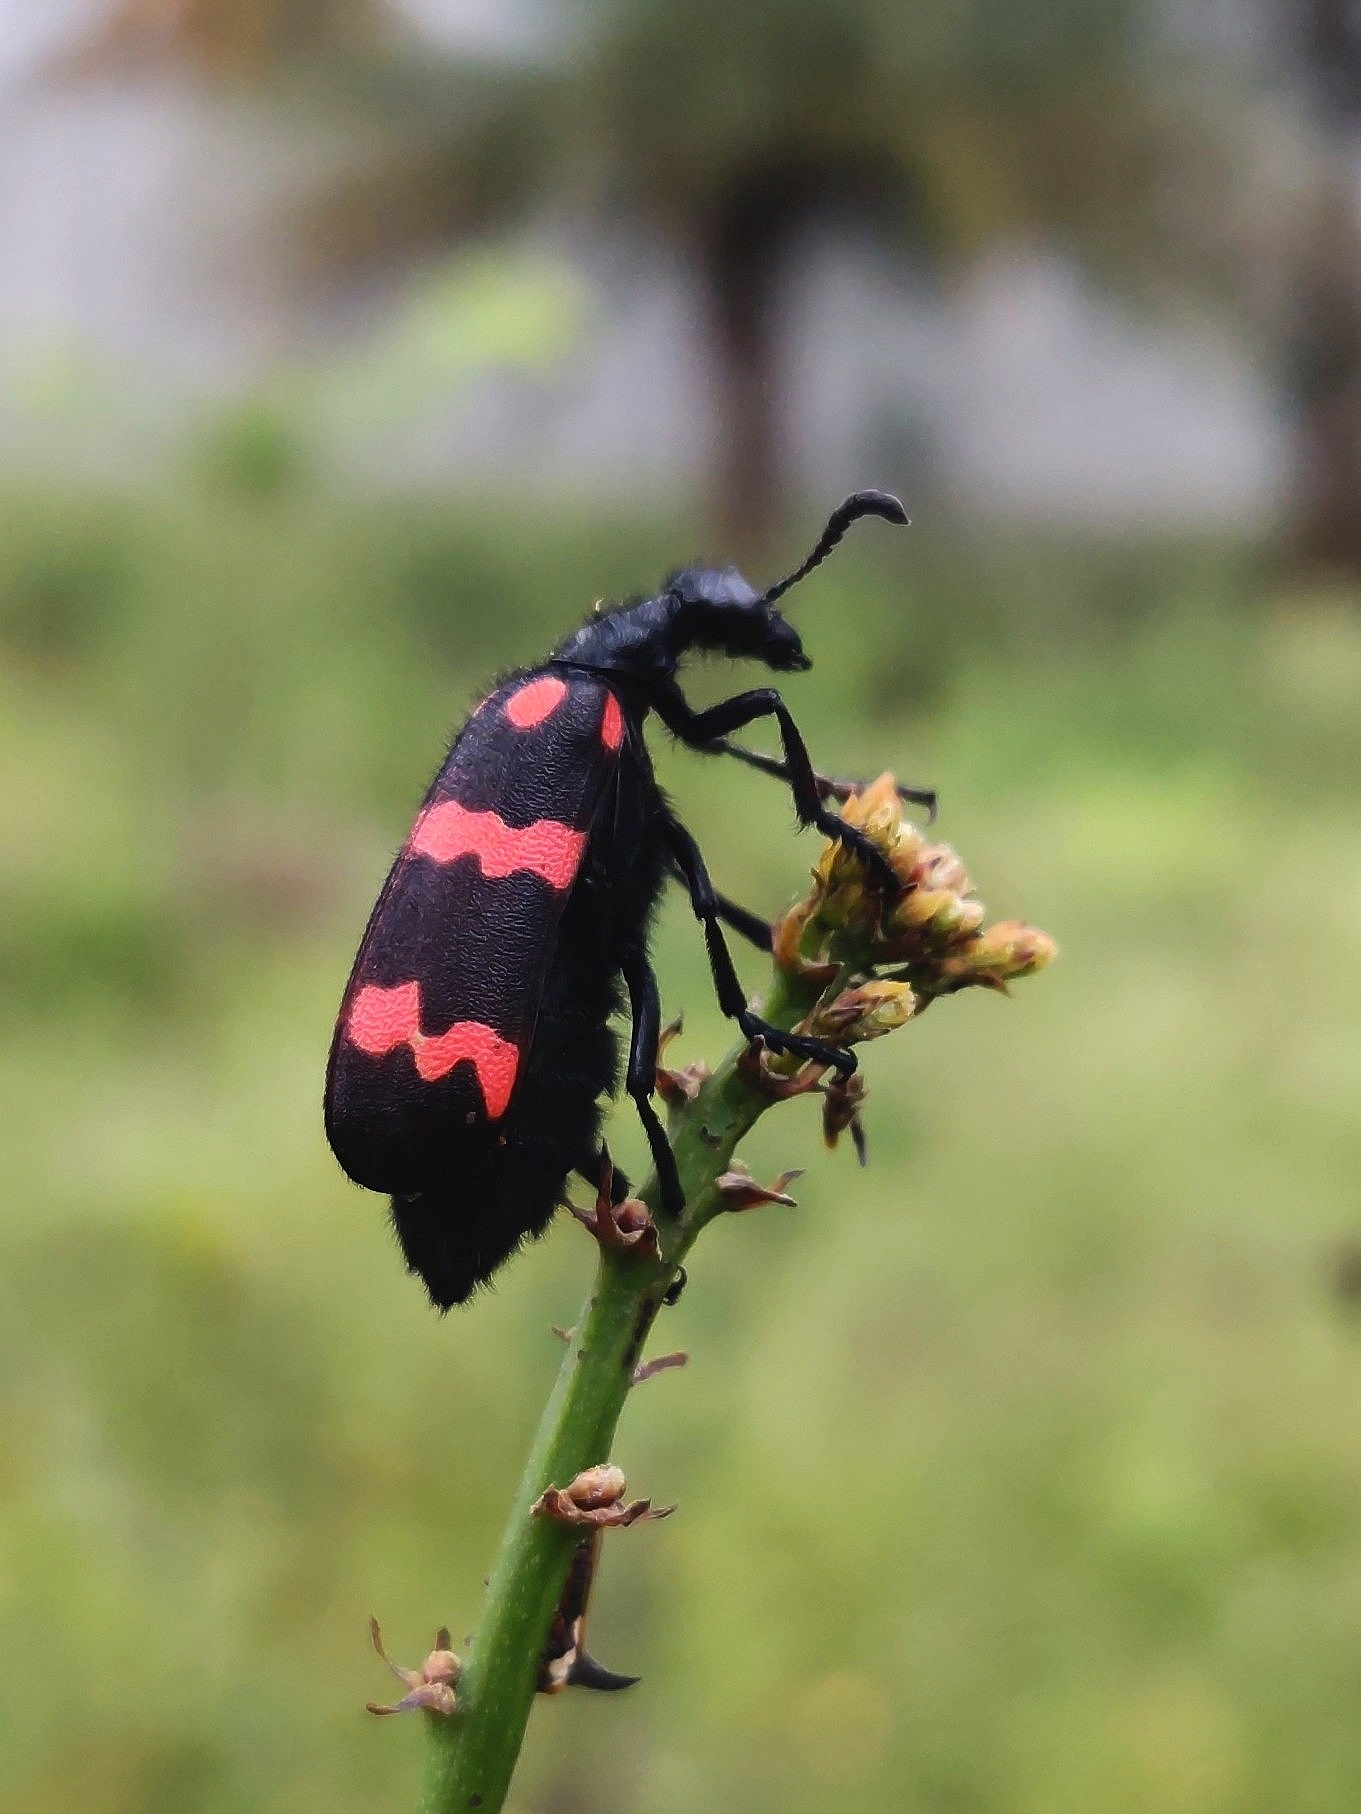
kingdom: Animalia
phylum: Arthropoda
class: Insecta
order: Coleoptera
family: Meloidae
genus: Hycleus
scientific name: Hycleus biundulatus
